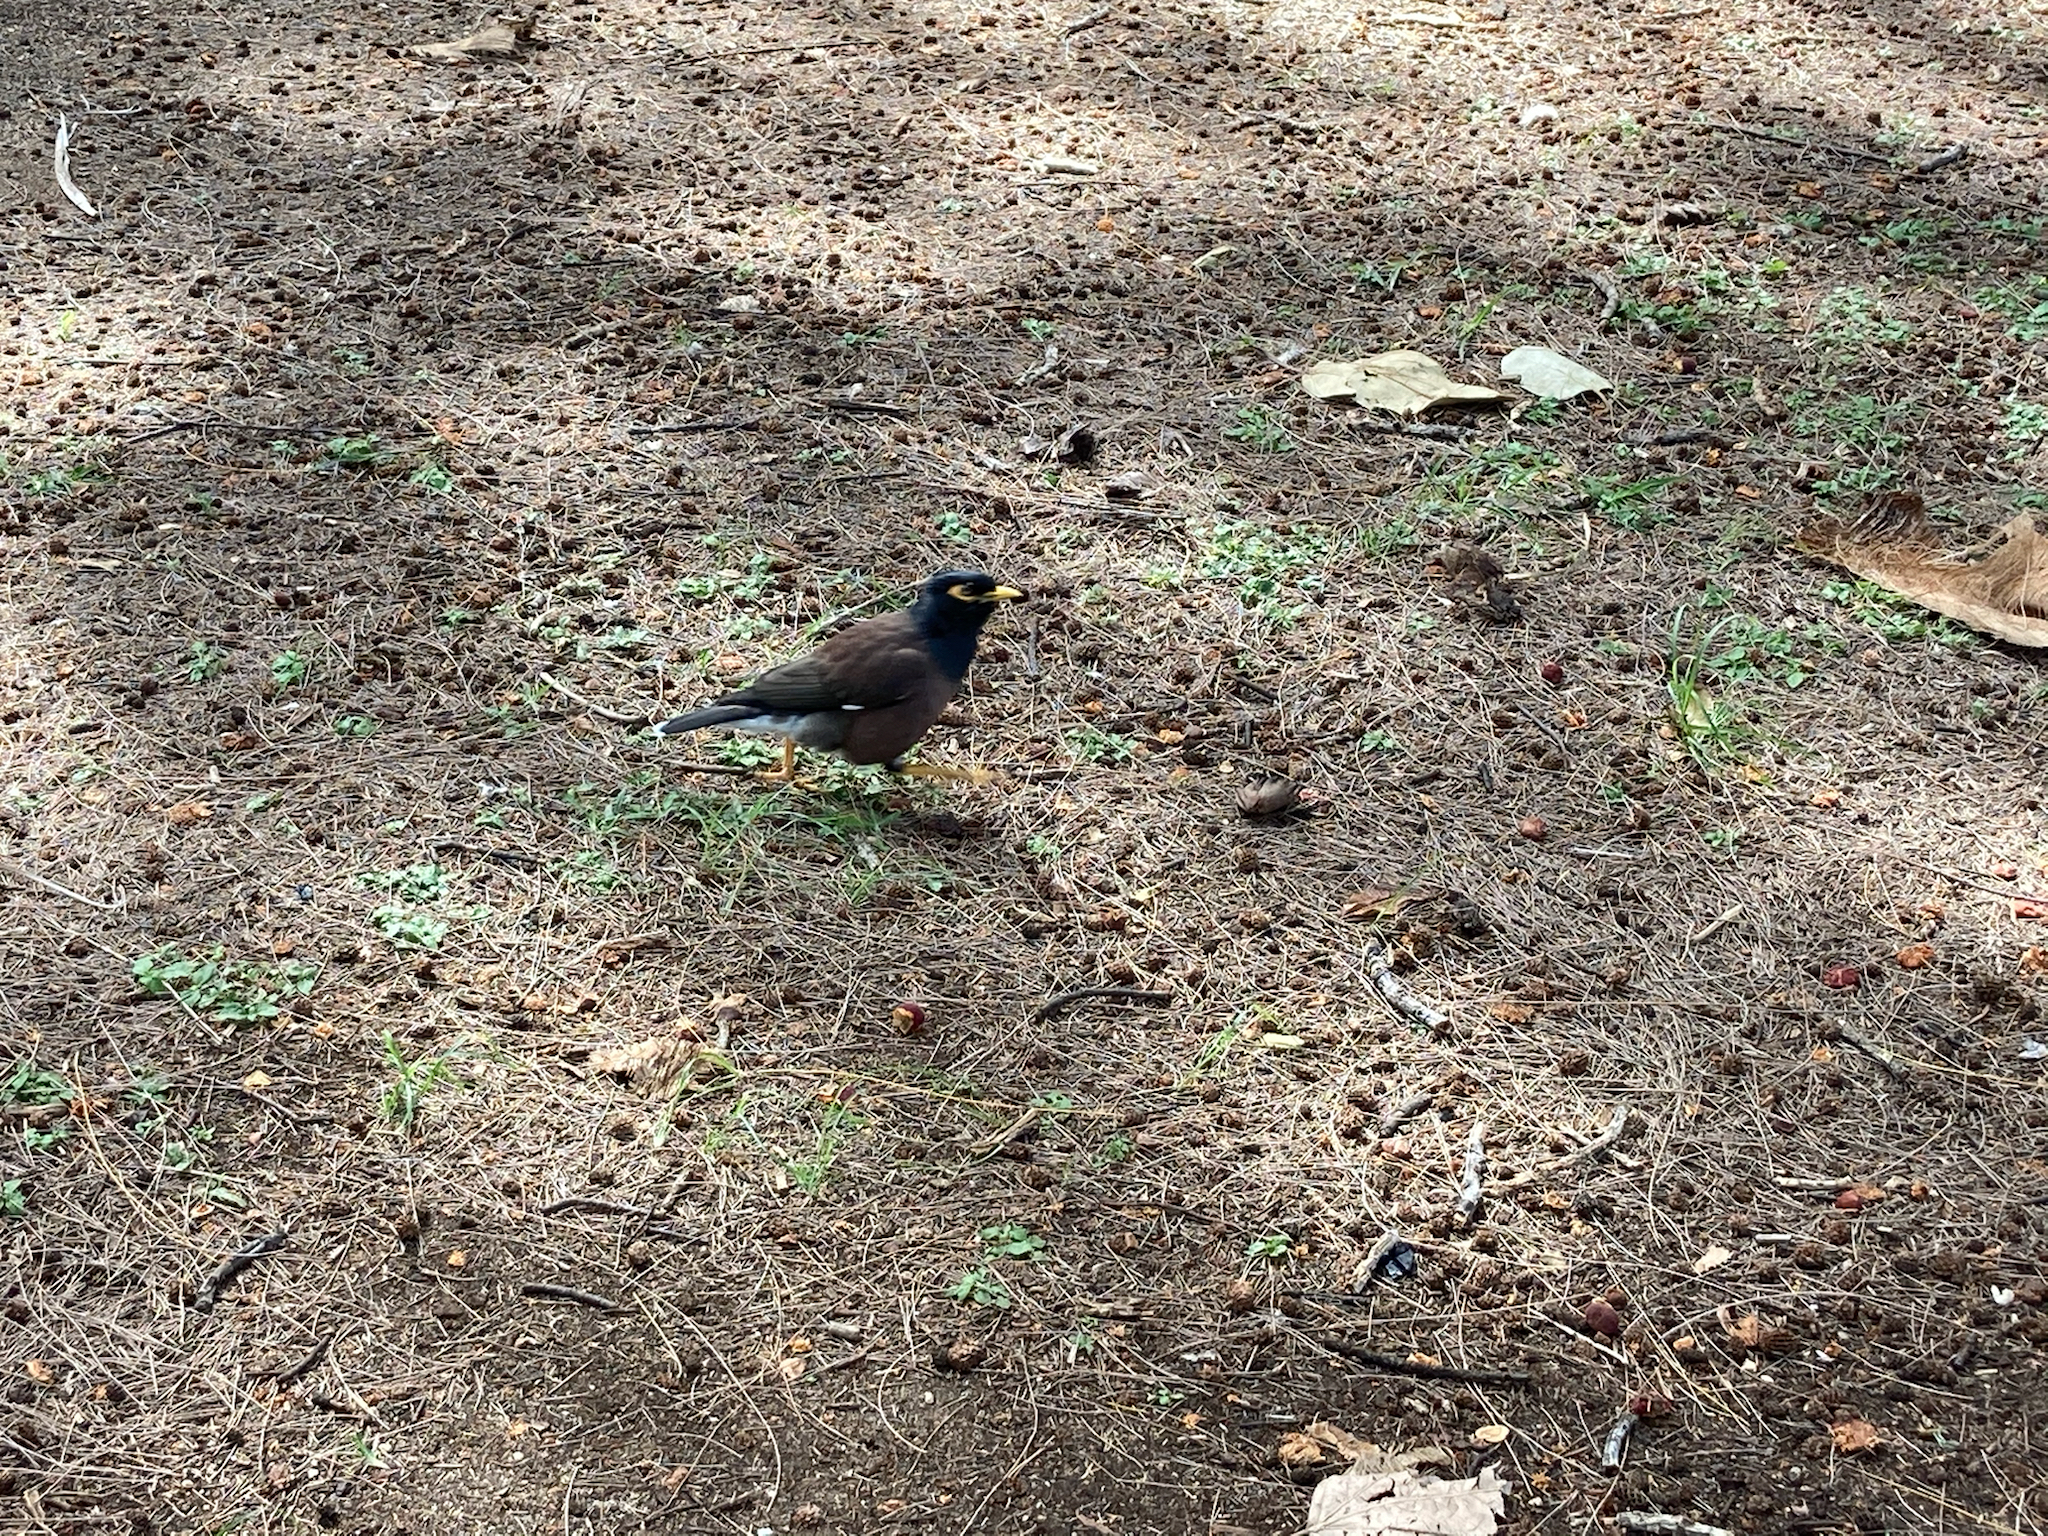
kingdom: Animalia
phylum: Chordata
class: Aves
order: Passeriformes
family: Sturnidae
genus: Acridotheres
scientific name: Acridotheres tristis
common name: Common myna
